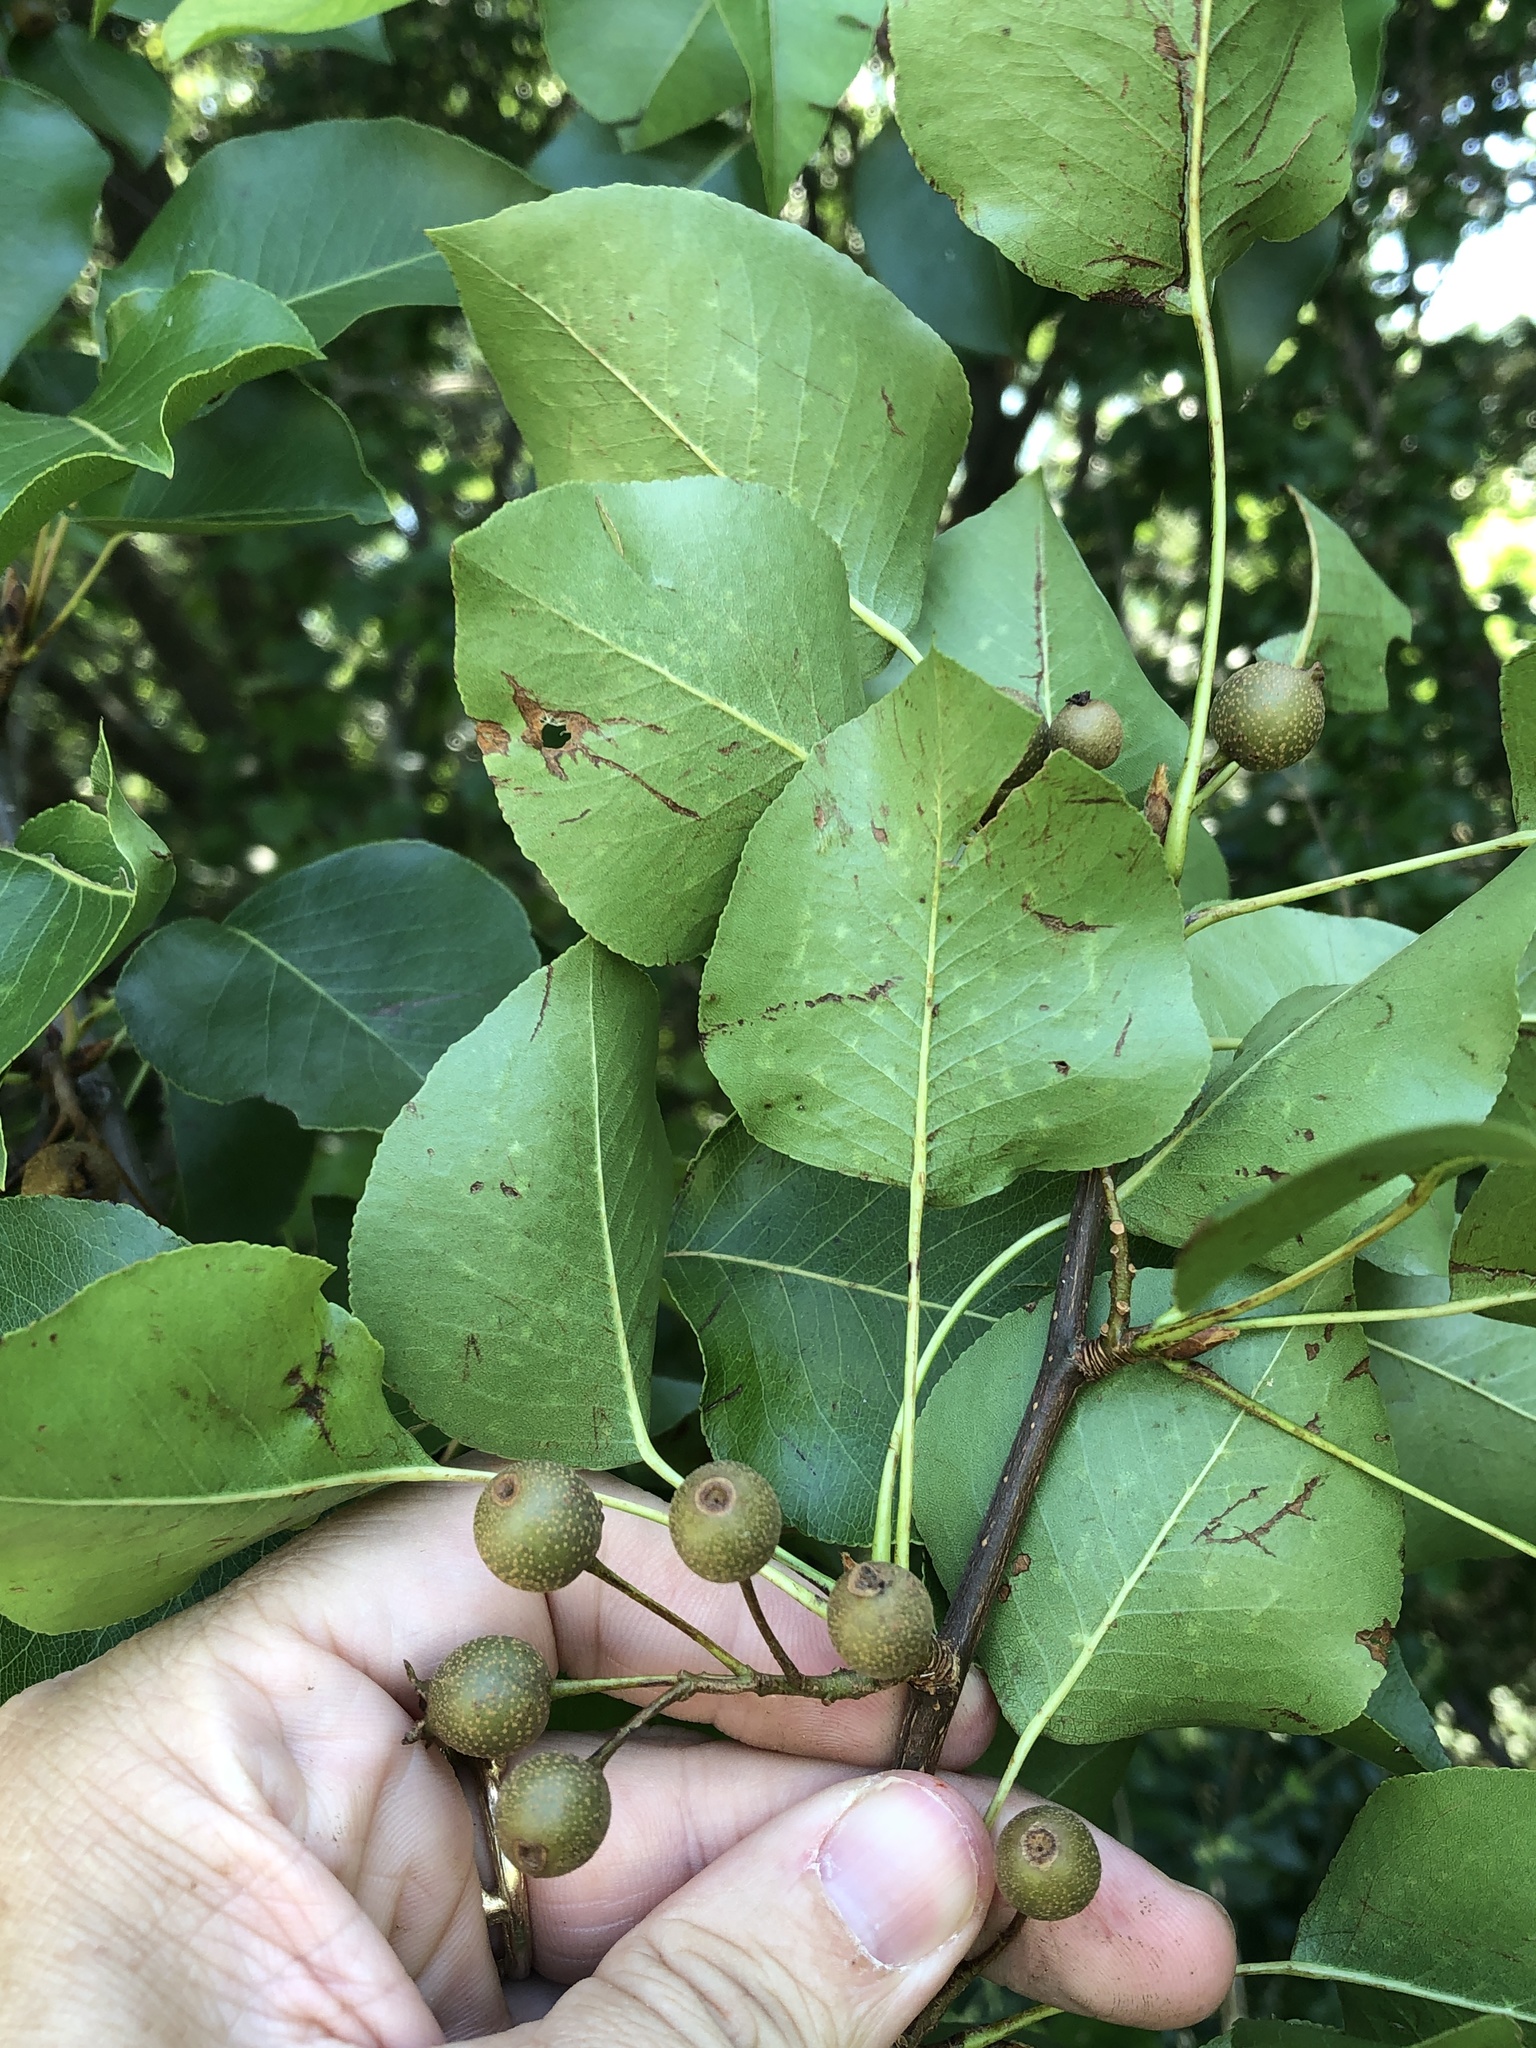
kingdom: Plantae
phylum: Tracheophyta
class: Magnoliopsida
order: Rosales
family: Rosaceae
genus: Pyrus
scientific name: Pyrus calleryana
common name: Callery pear
